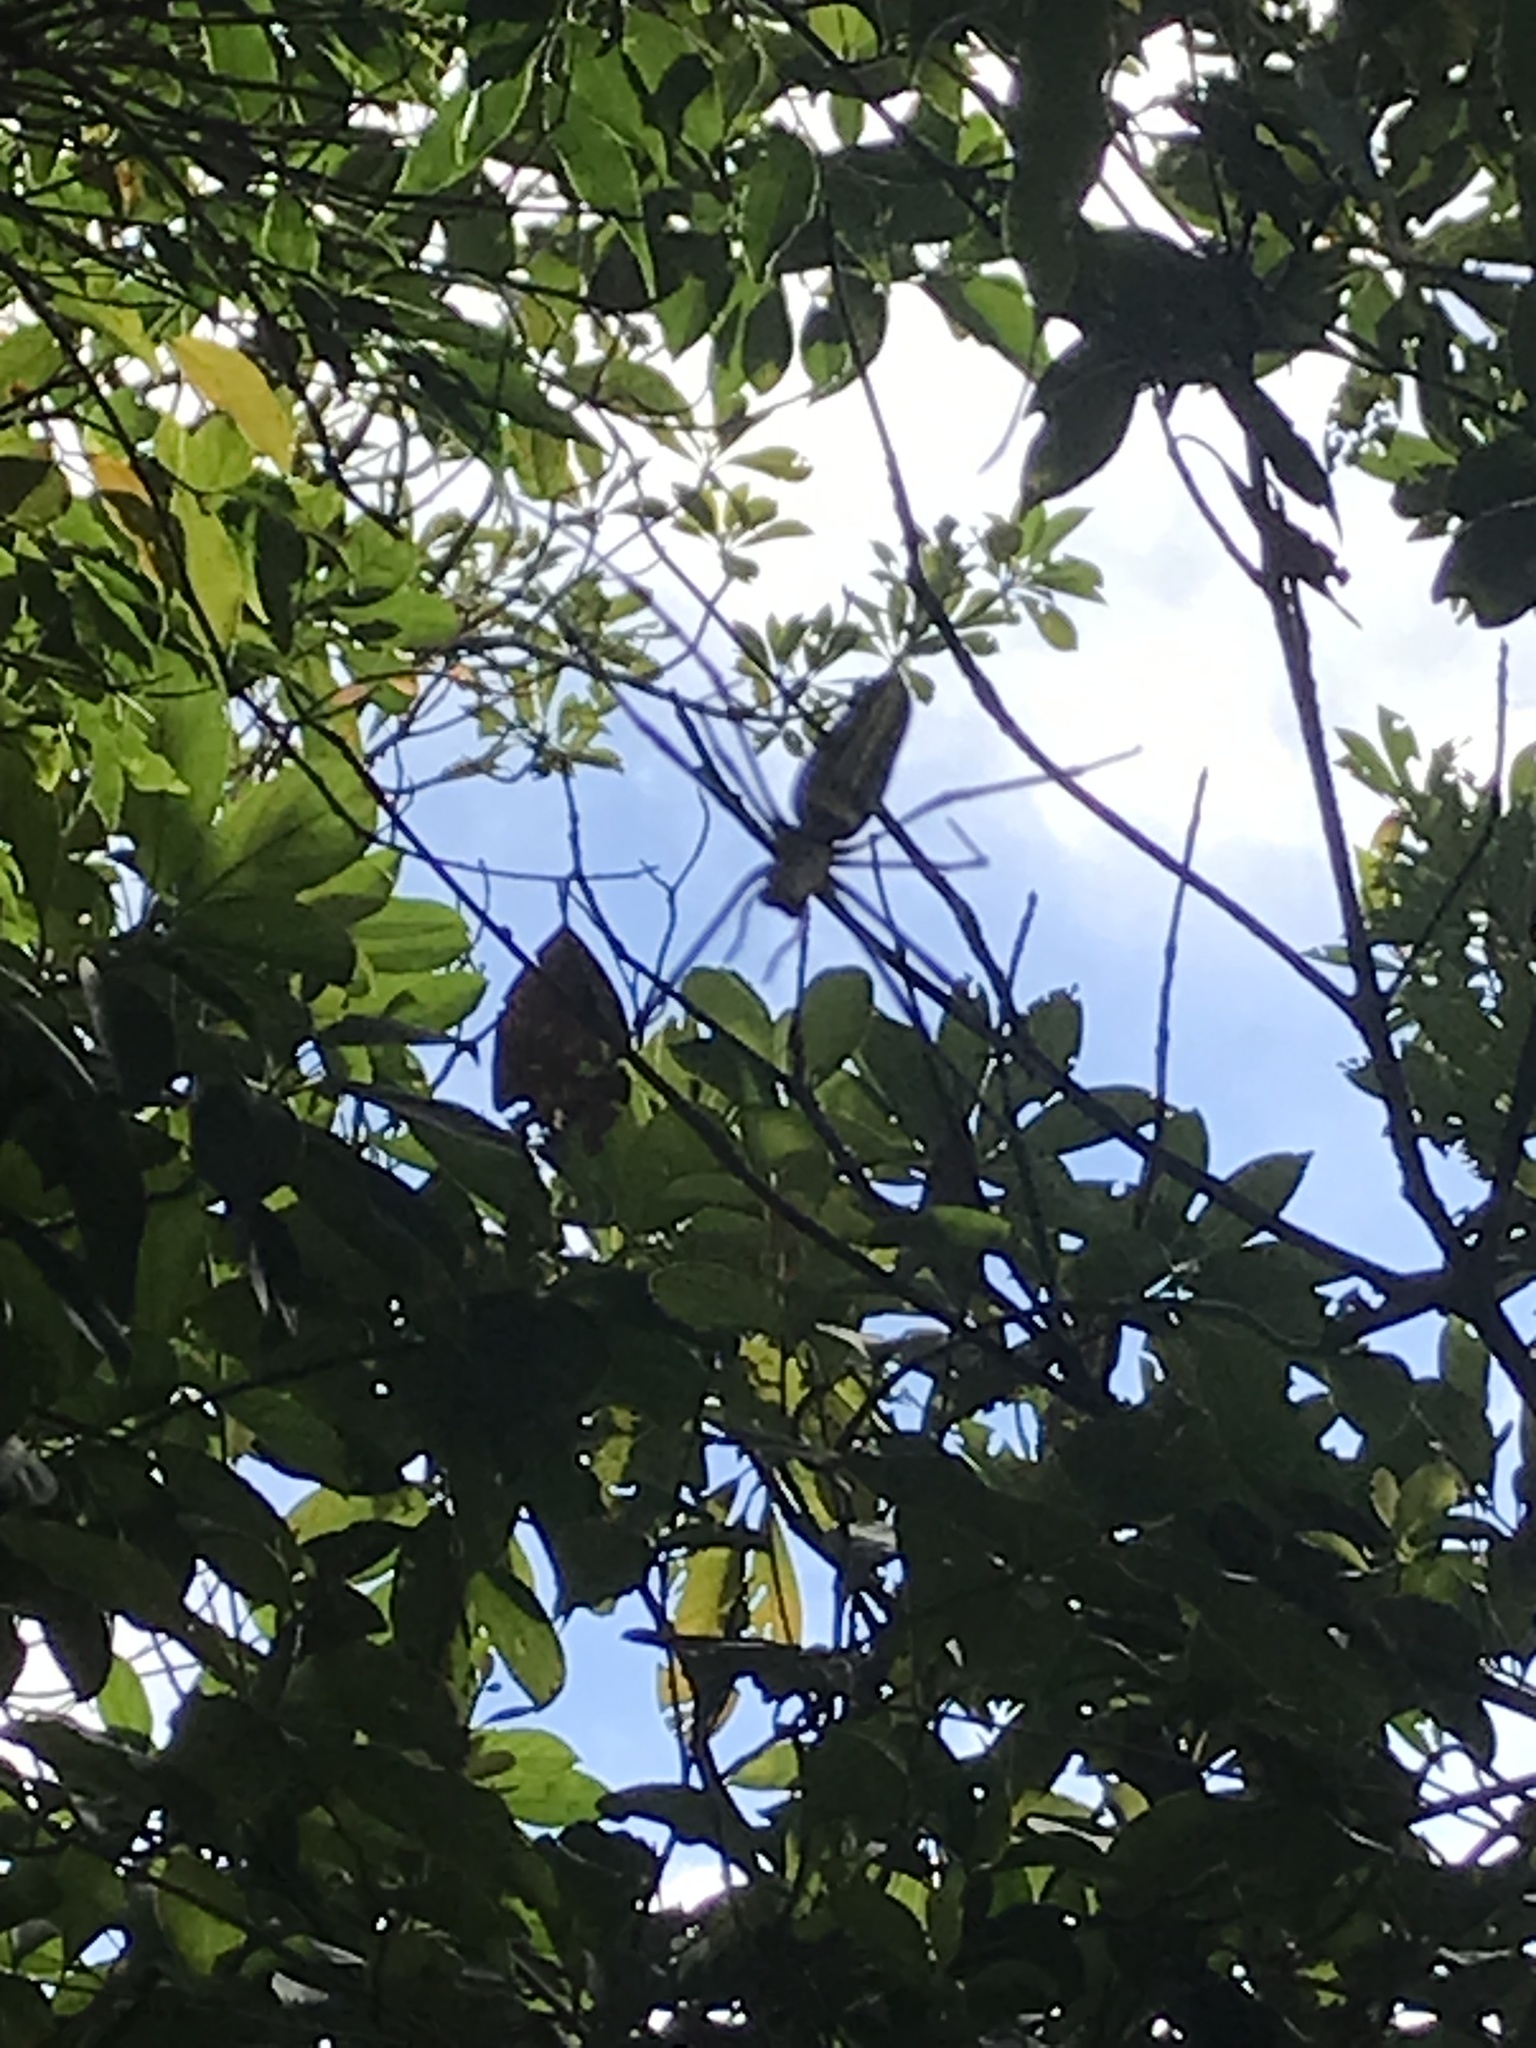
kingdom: Animalia
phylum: Arthropoda
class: Arachnida
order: Araneae
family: Araneidae
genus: Nephila
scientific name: Nephila pilipes
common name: Giant golden orb weaver
